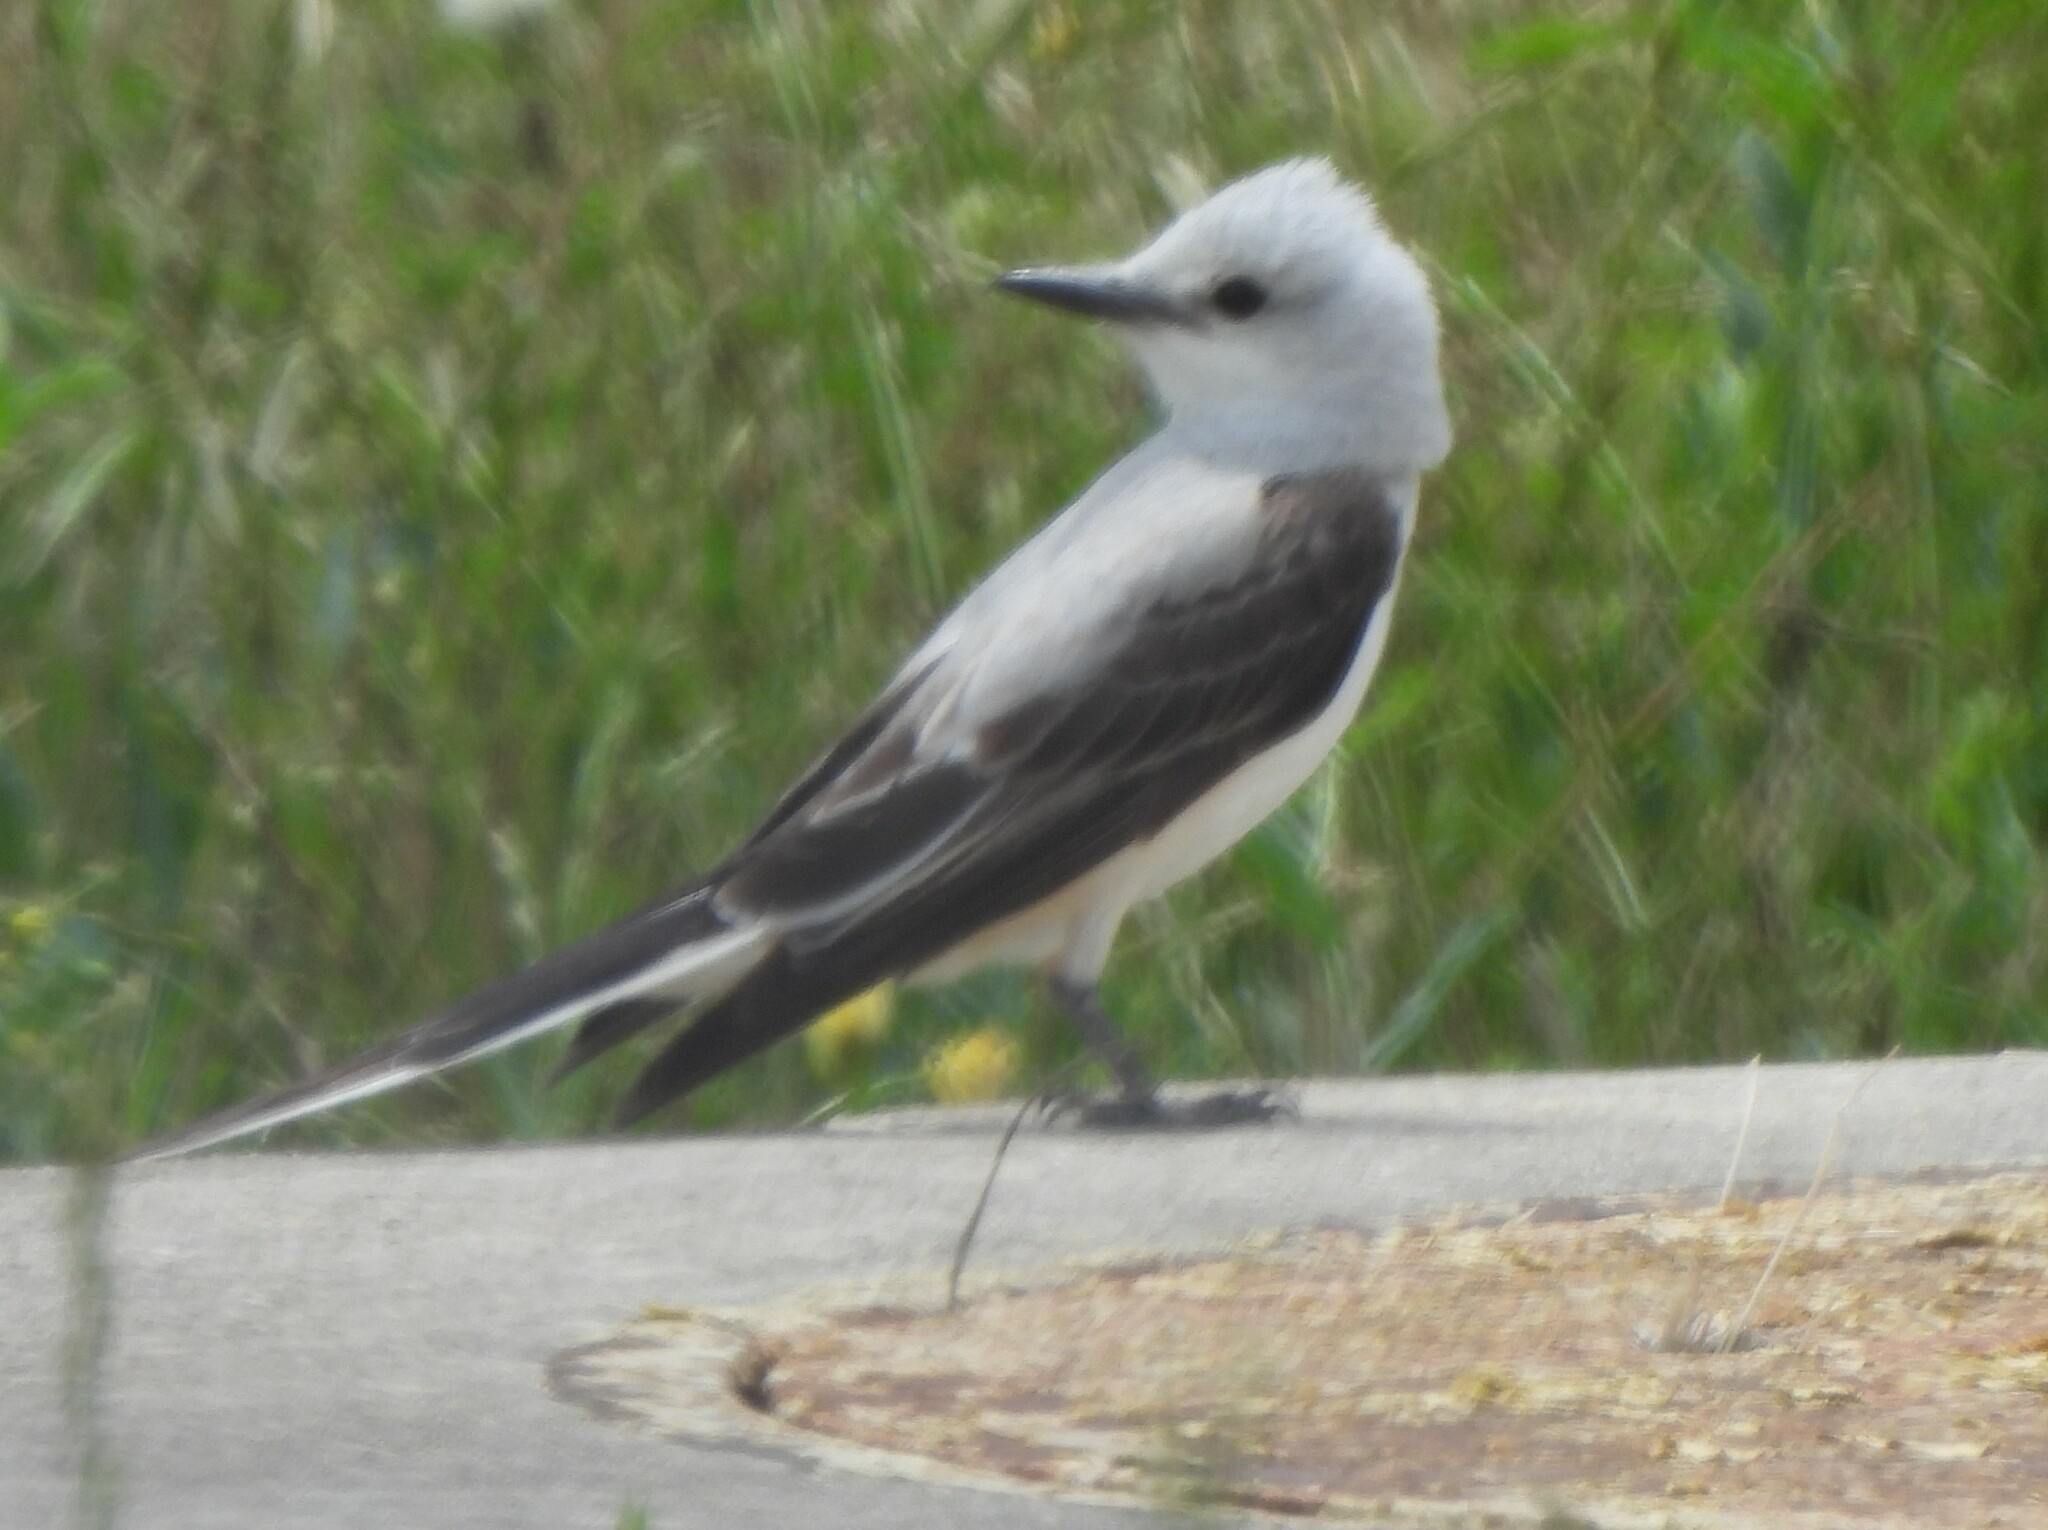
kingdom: Animalia
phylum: Chordata
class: Aves
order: Passeriformes
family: Tyrannidae
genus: Tyrannus
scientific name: Tyrannus forficatus
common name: Scissor-tailed flycatcher
